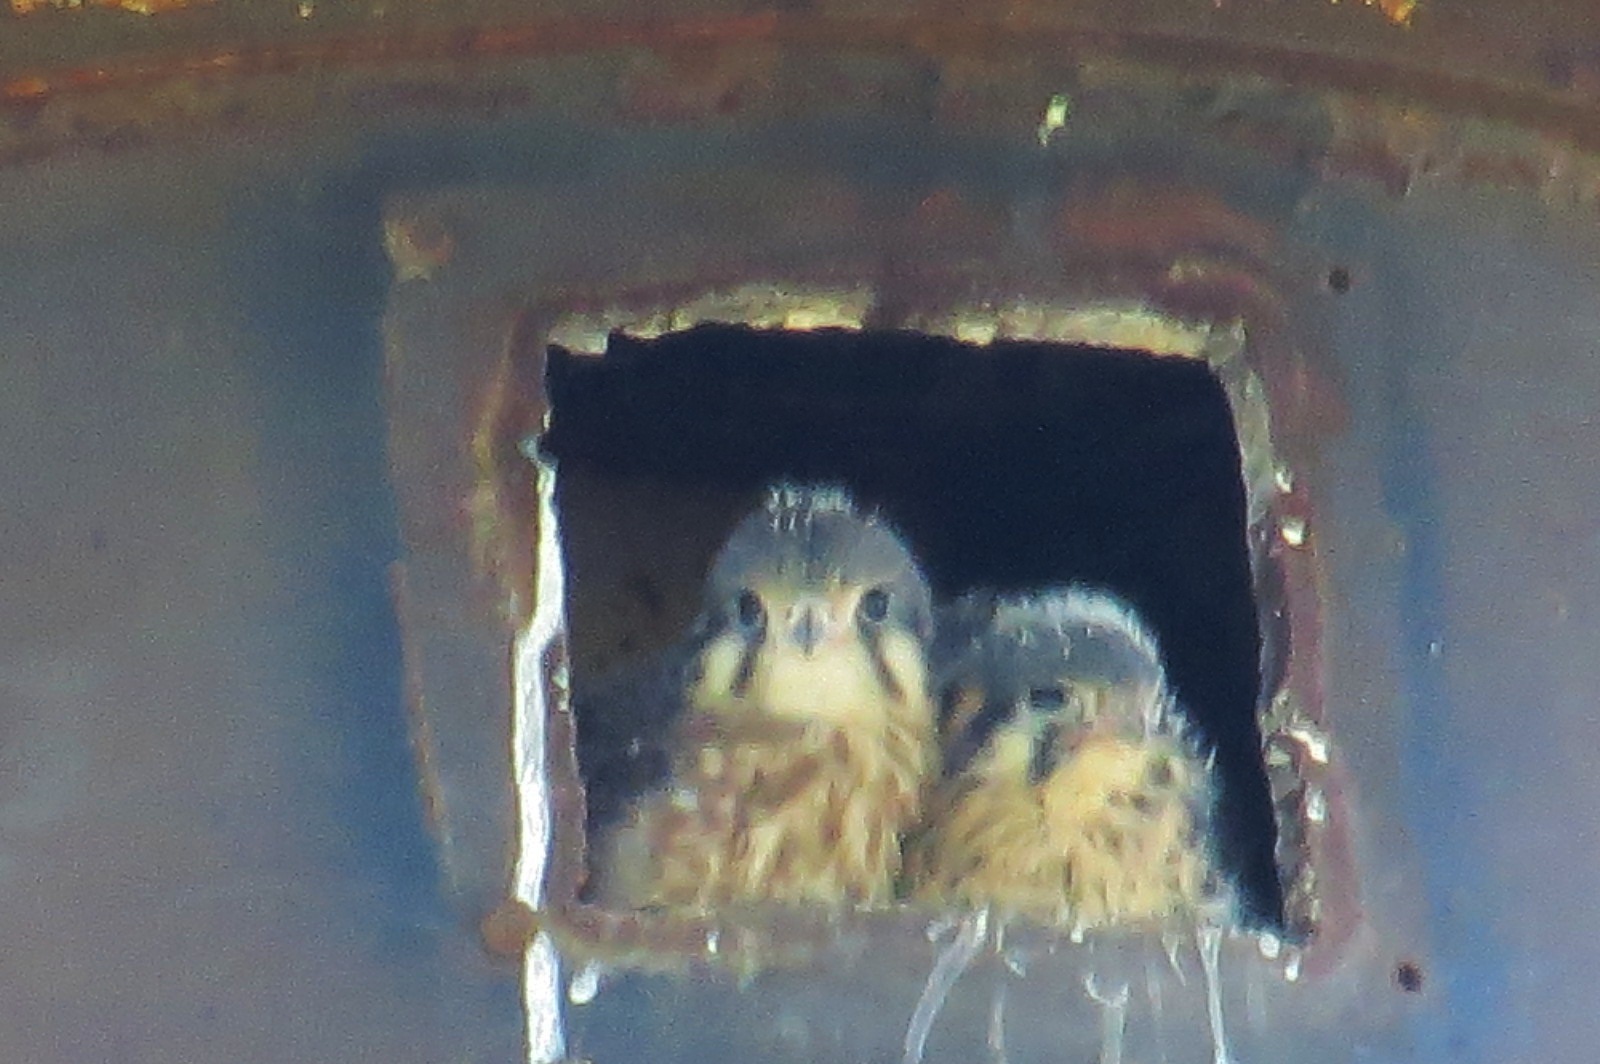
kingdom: Animalia
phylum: Chordata
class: Aves
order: Falconiformes
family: Falconidae
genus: Falco
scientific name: Falco sparverius
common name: American kestrel
